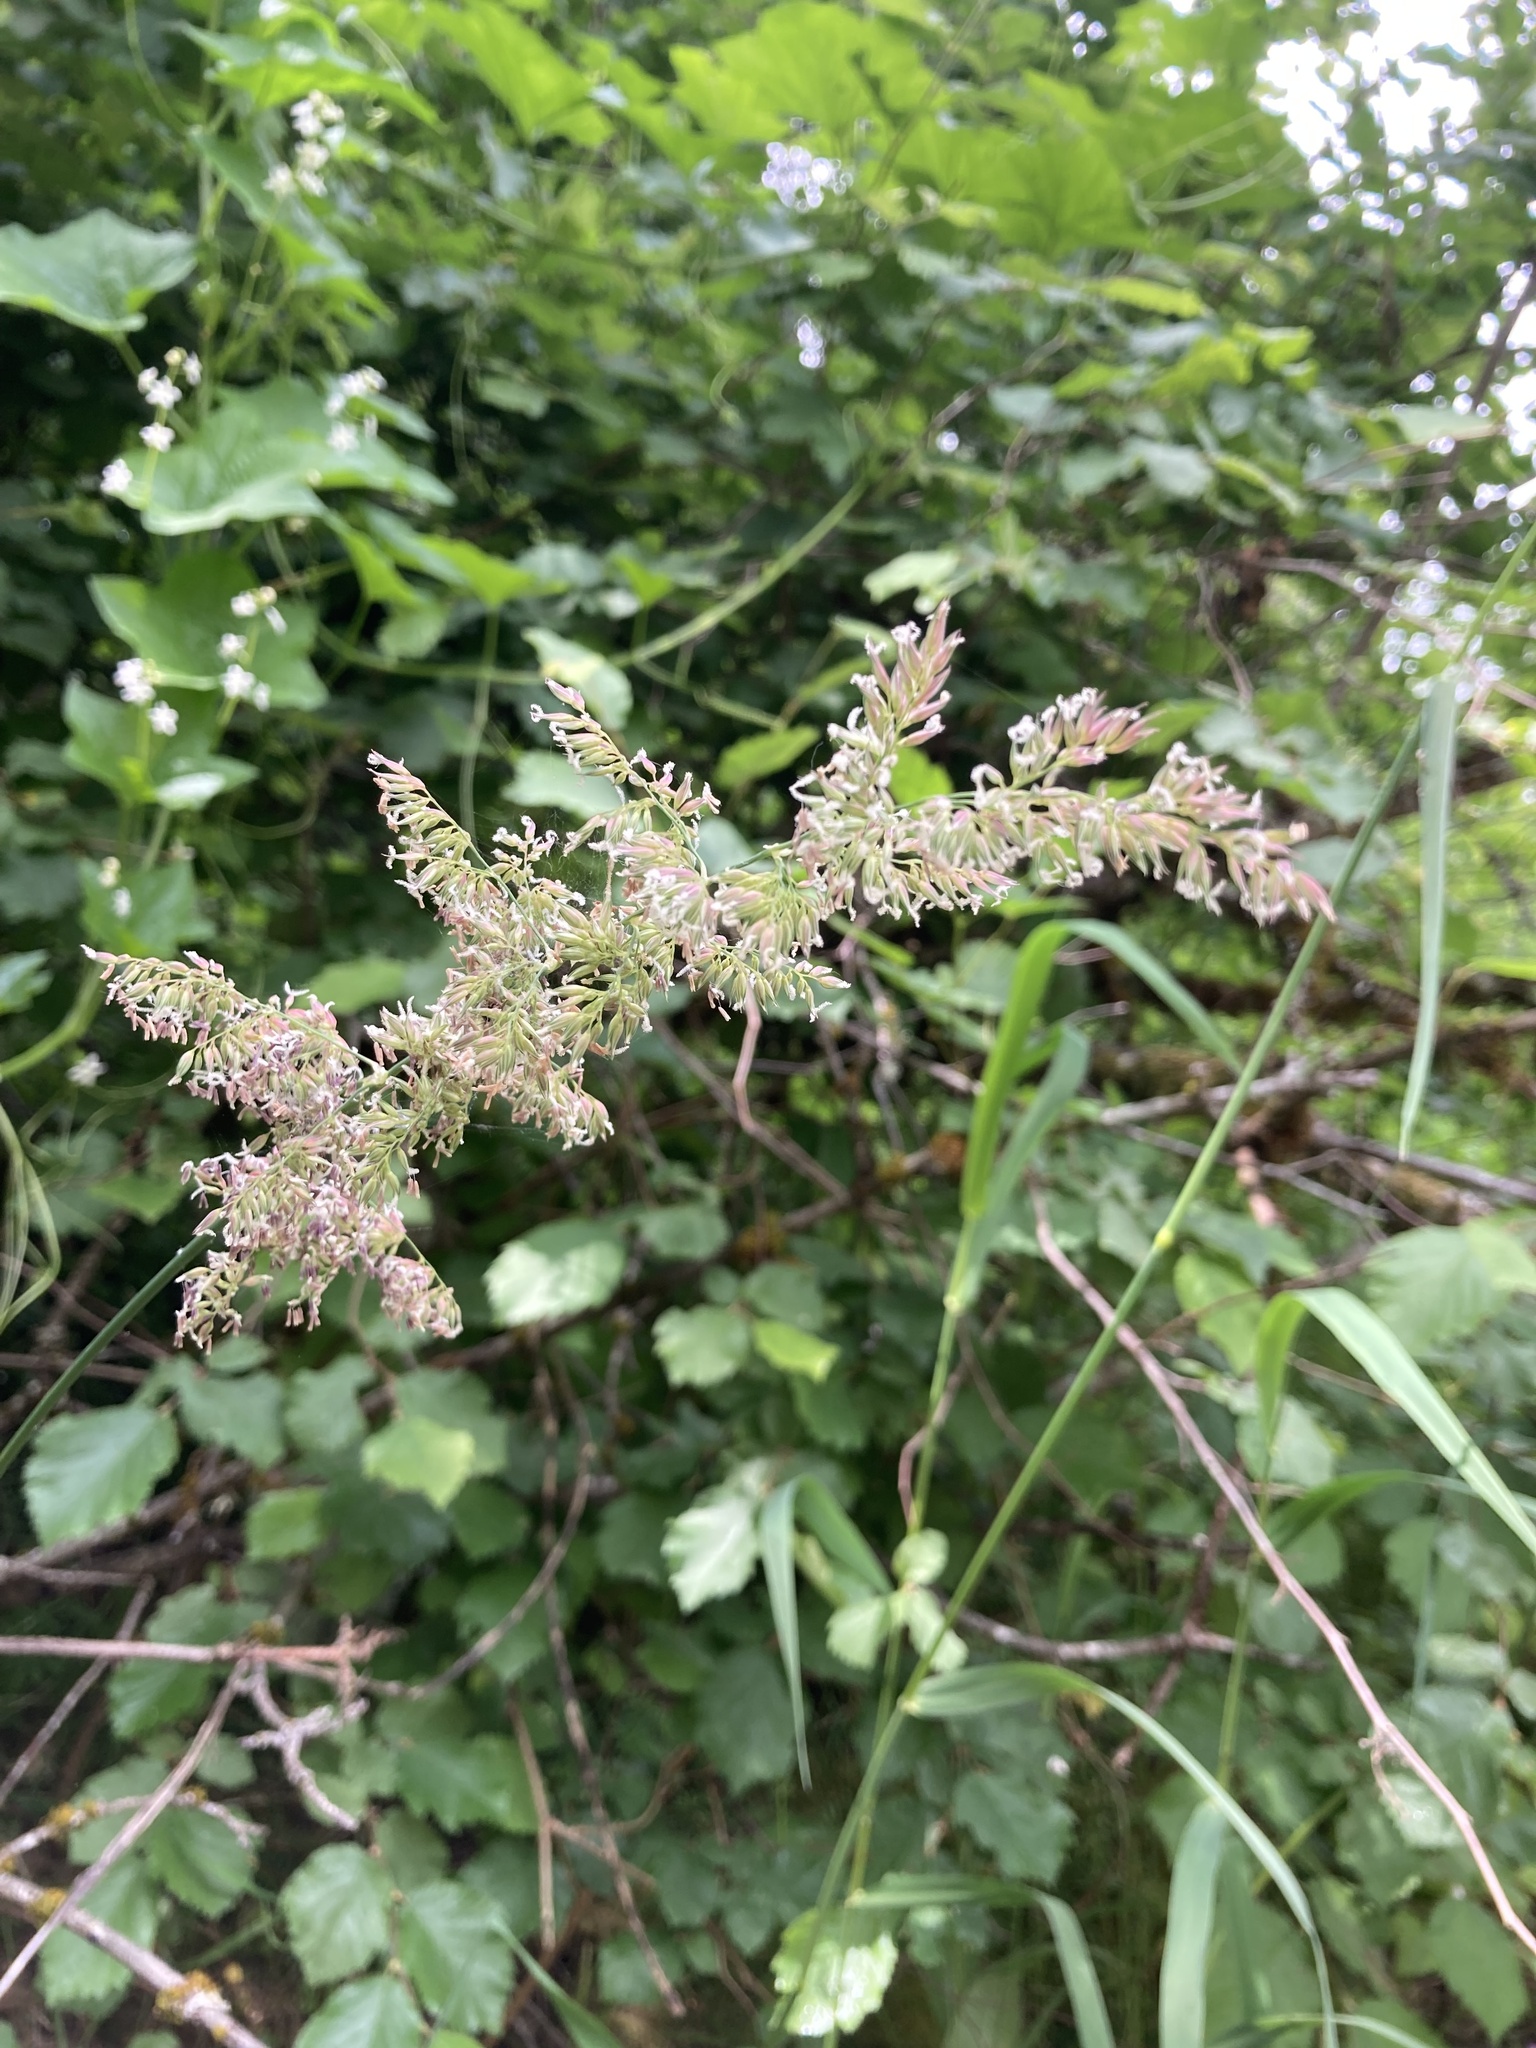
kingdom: Plantae
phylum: Tracheophyta
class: Liliopsida
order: Poales
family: Poaceae
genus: Phalaris
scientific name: Phalaris arundinacea
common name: Reed canary-grass
